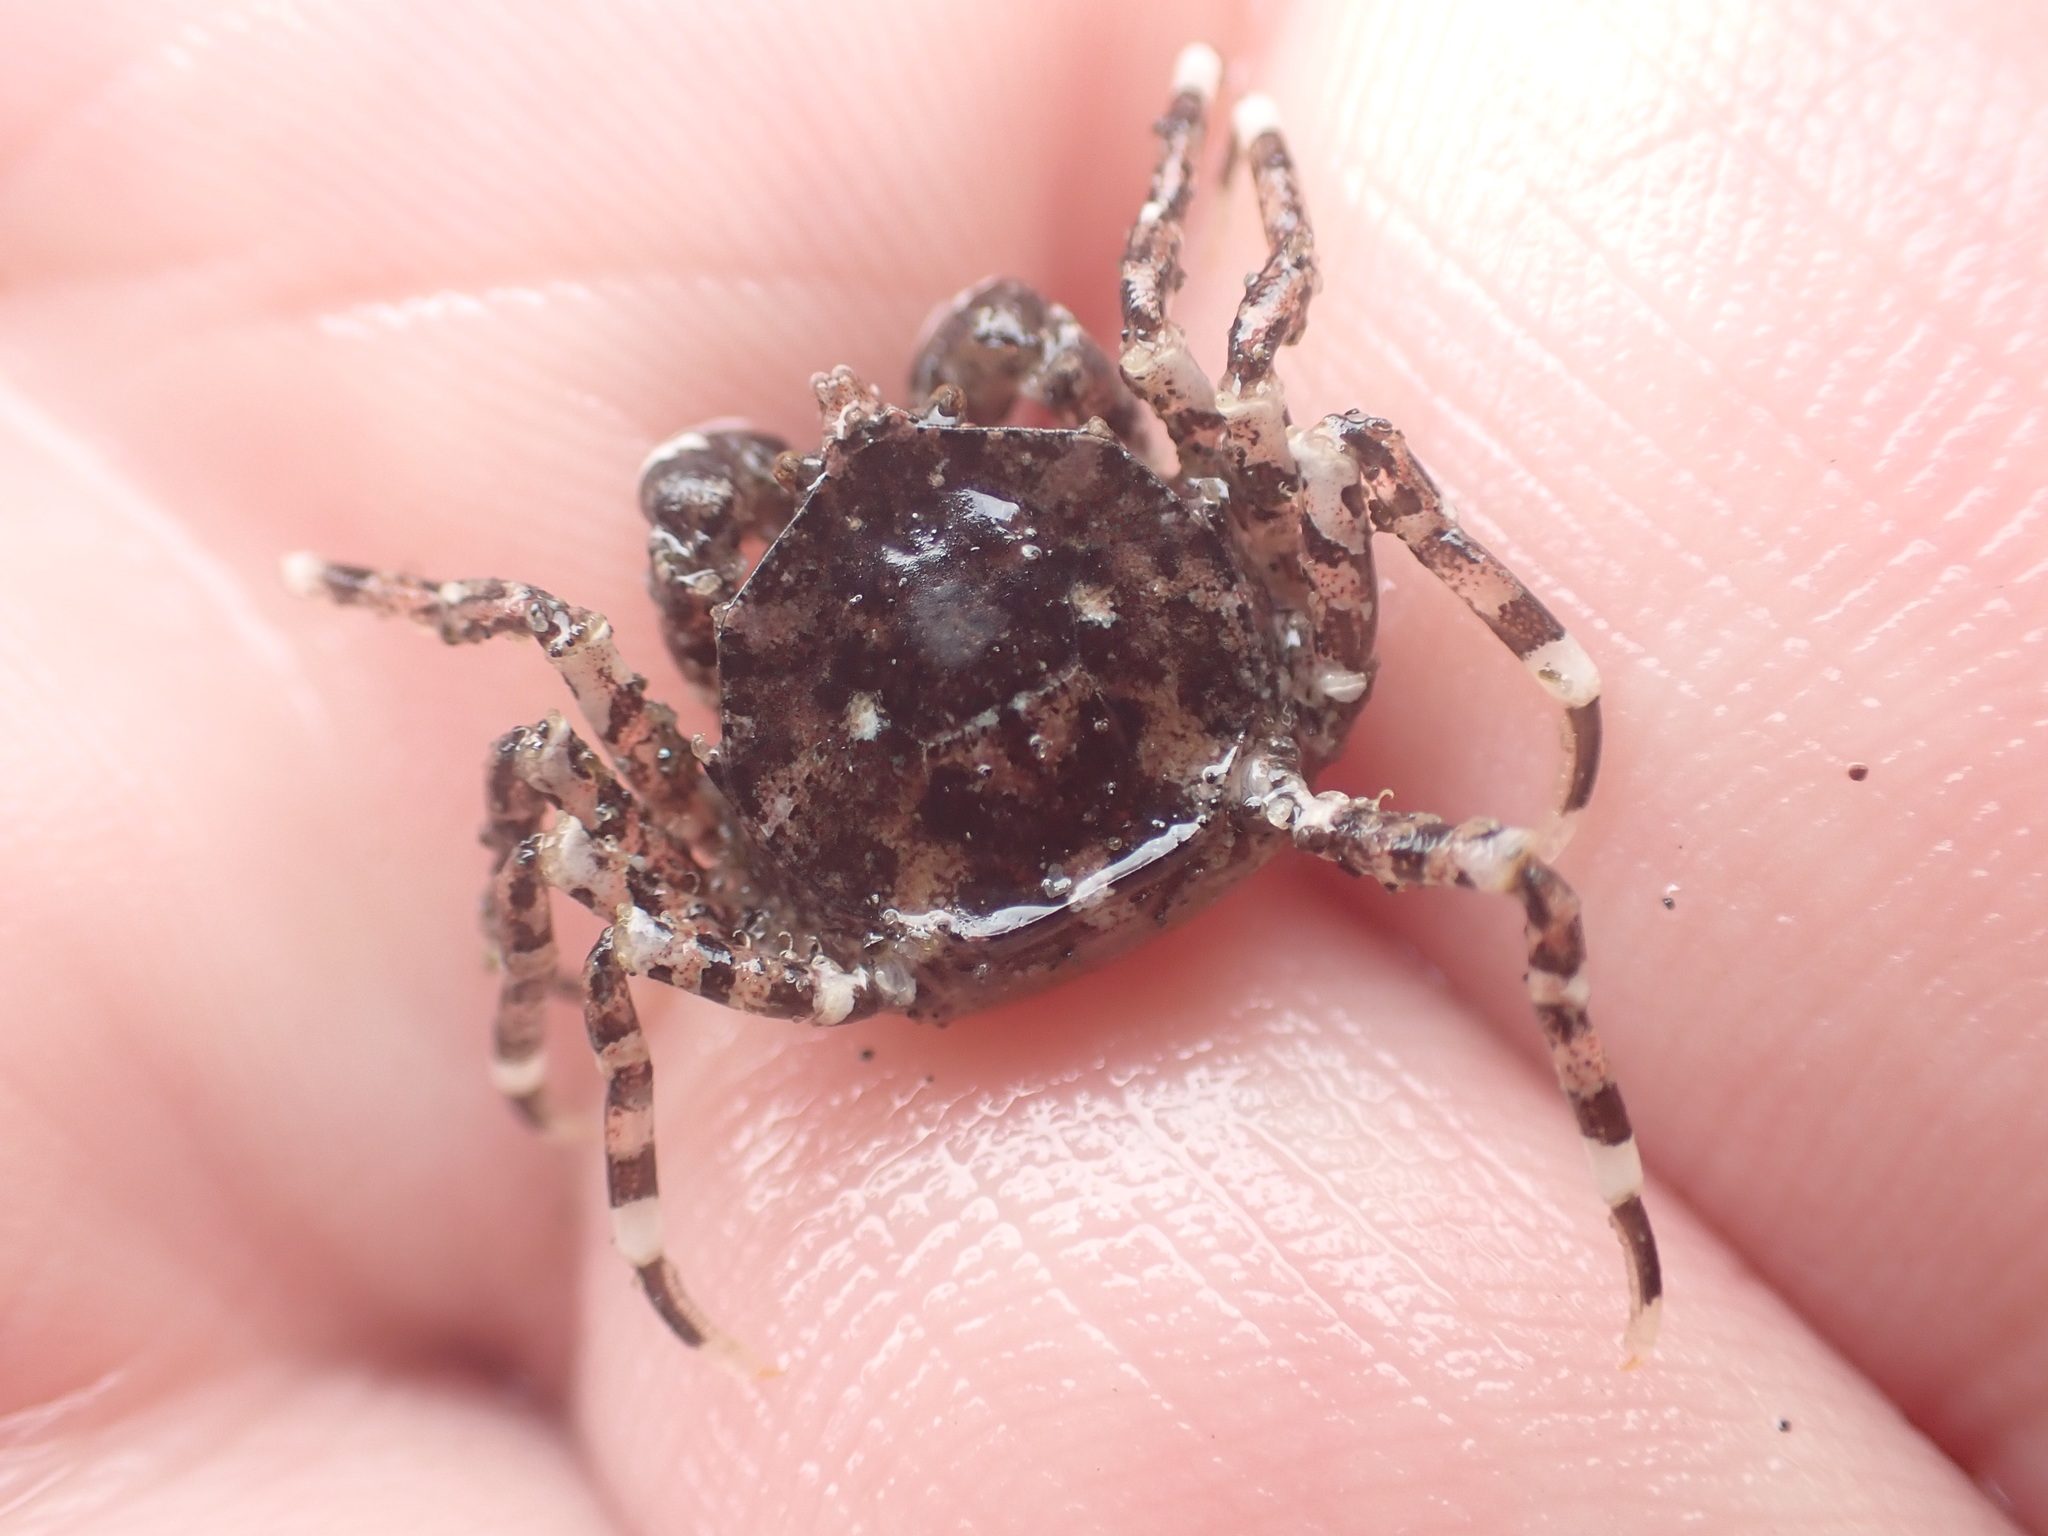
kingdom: Animalia
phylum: Arthropoda
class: Malacostraca
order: Decapoda
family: Hymenosomatidae
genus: Halicarcinus
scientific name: Halicarcinus cookii
